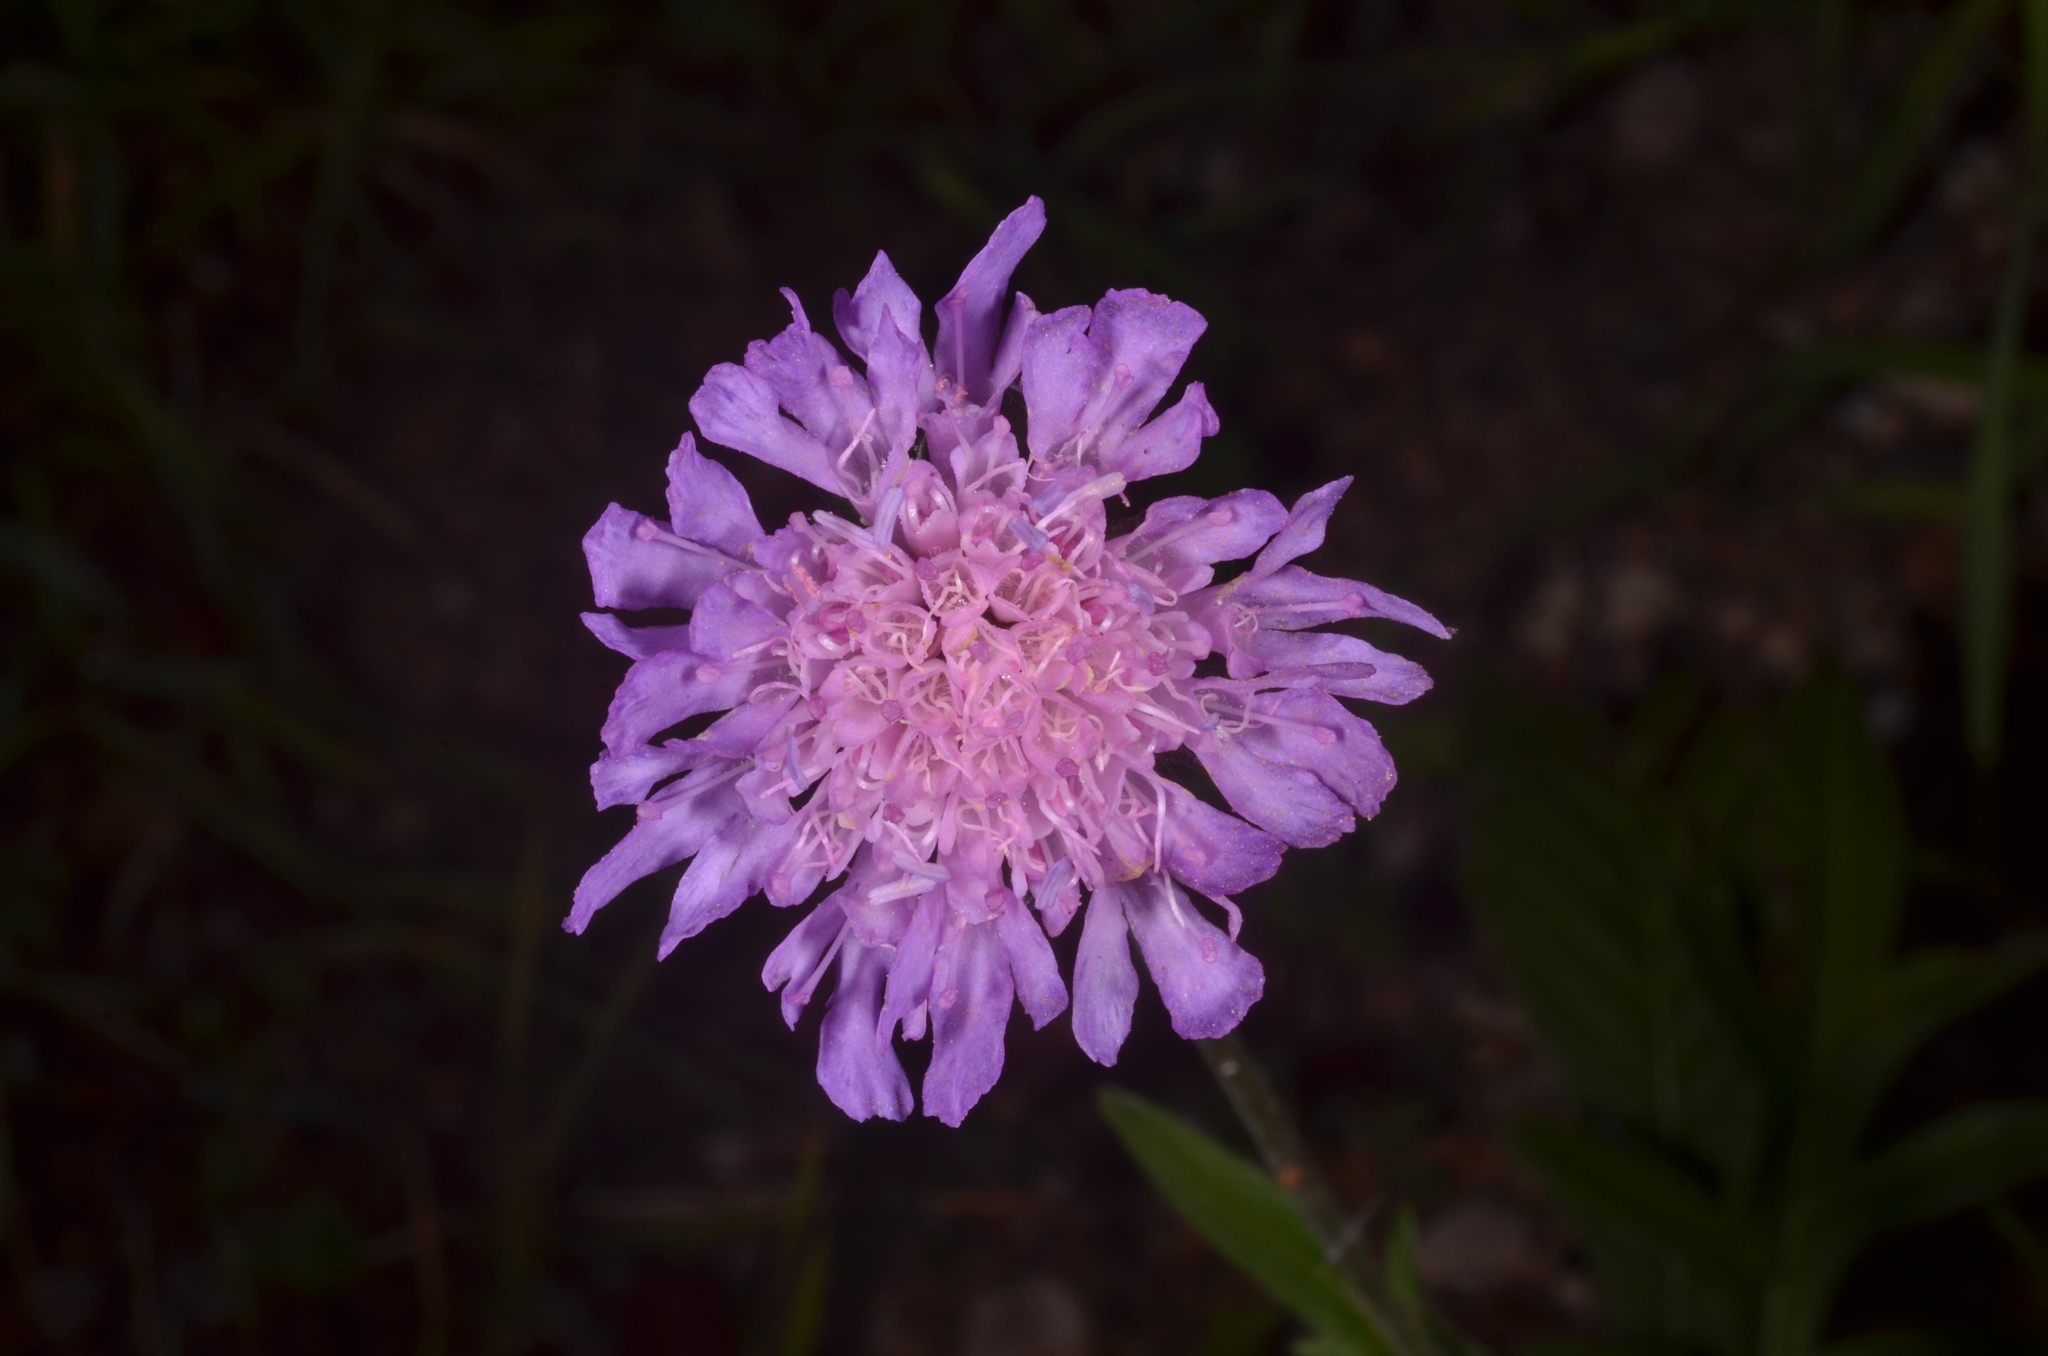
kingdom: Plantae
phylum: Tracheophyta
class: Magnoliopsida
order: Dipsacales
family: Caprifoliaceae
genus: Knautia
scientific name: Knautia arvensis
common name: Field scabiosa
